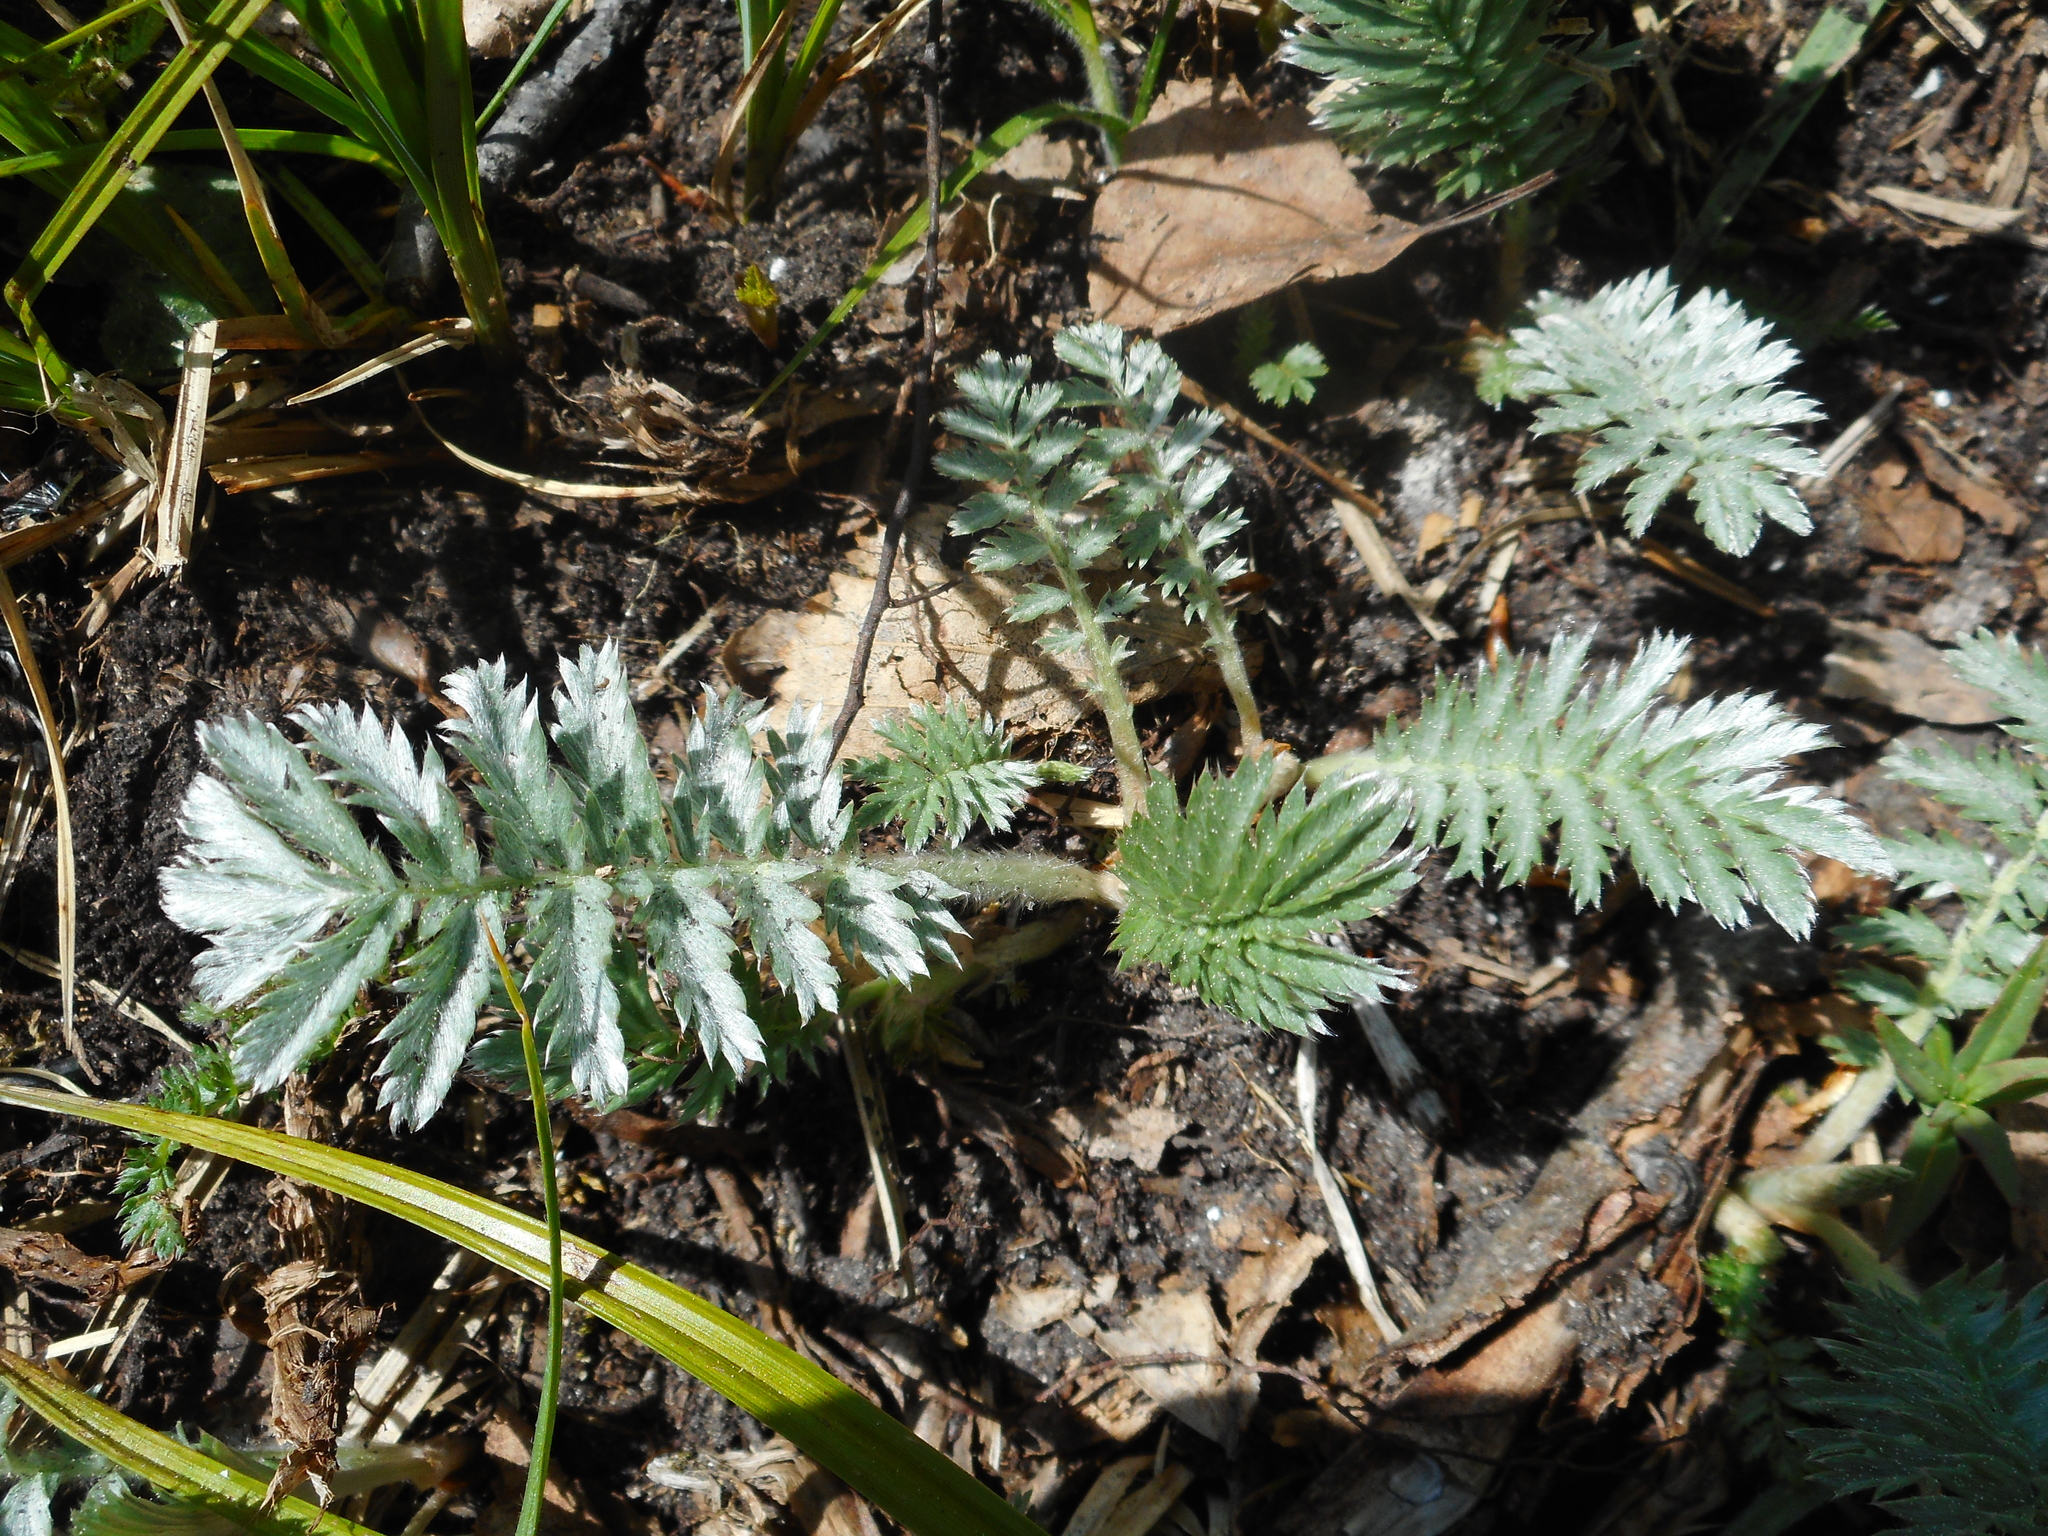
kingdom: Plantae
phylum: Tracheophyta
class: Magnoliopsida
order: Rosales
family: Rosaceae
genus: Argentina
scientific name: Argentina anserina
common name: Common silverweed
